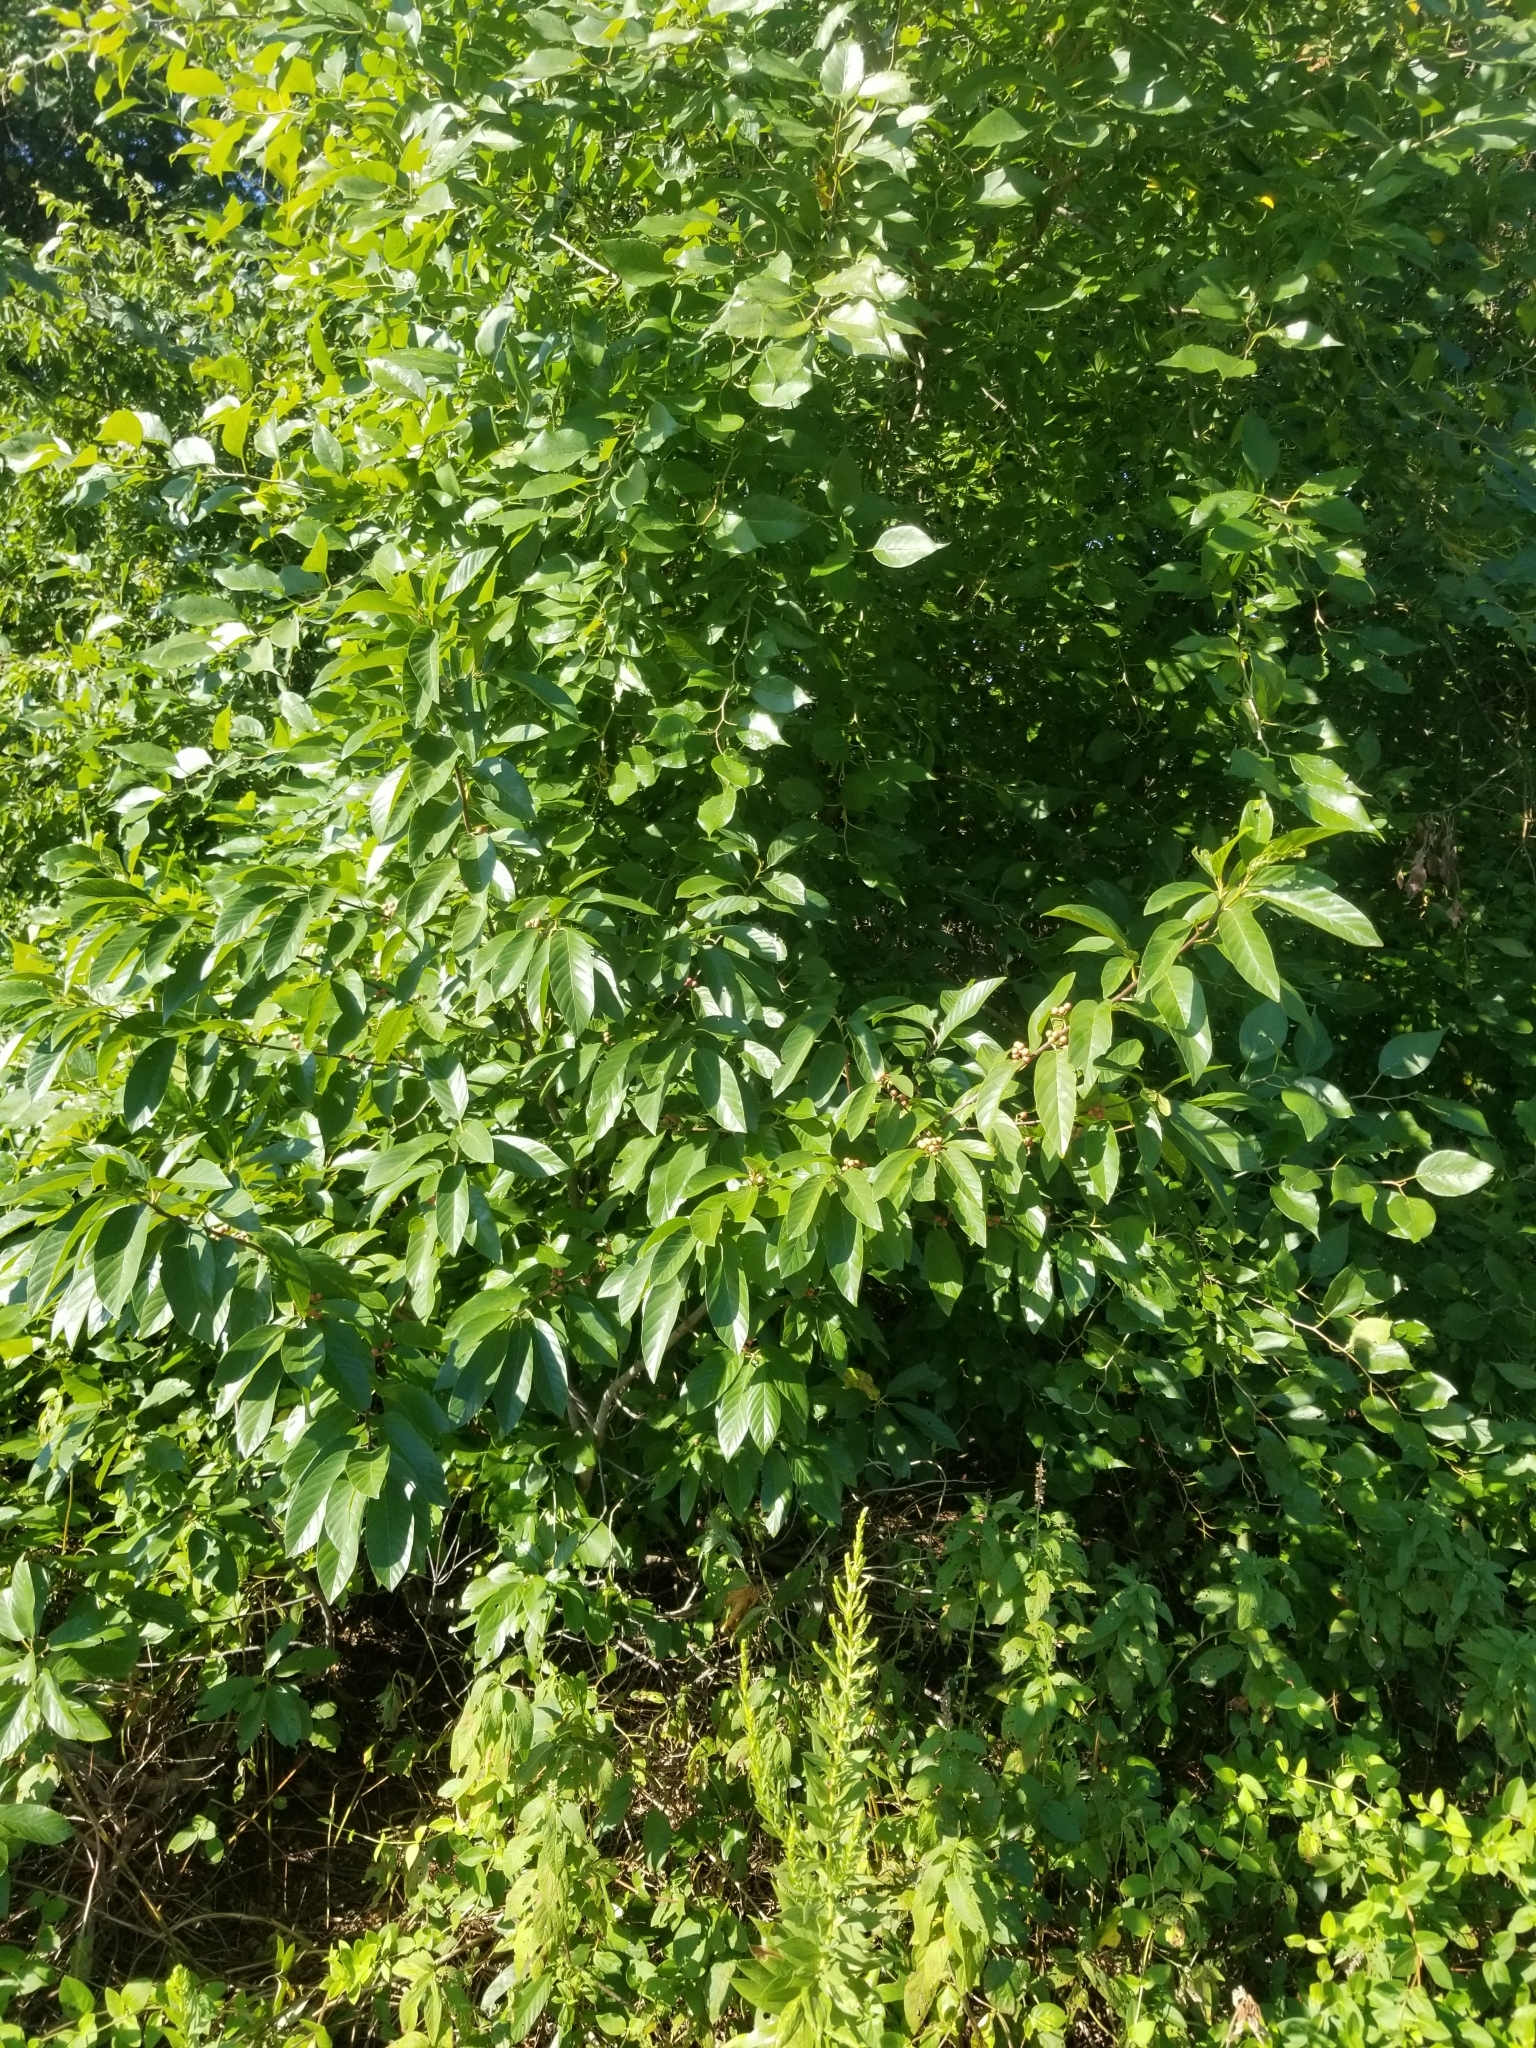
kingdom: Plantae
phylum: Tracheophyta
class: Magnoliopsida
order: Rosales
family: Rhamnaceae
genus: Frangula
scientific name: Frangula caroliniana
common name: Carolina buckthorn
